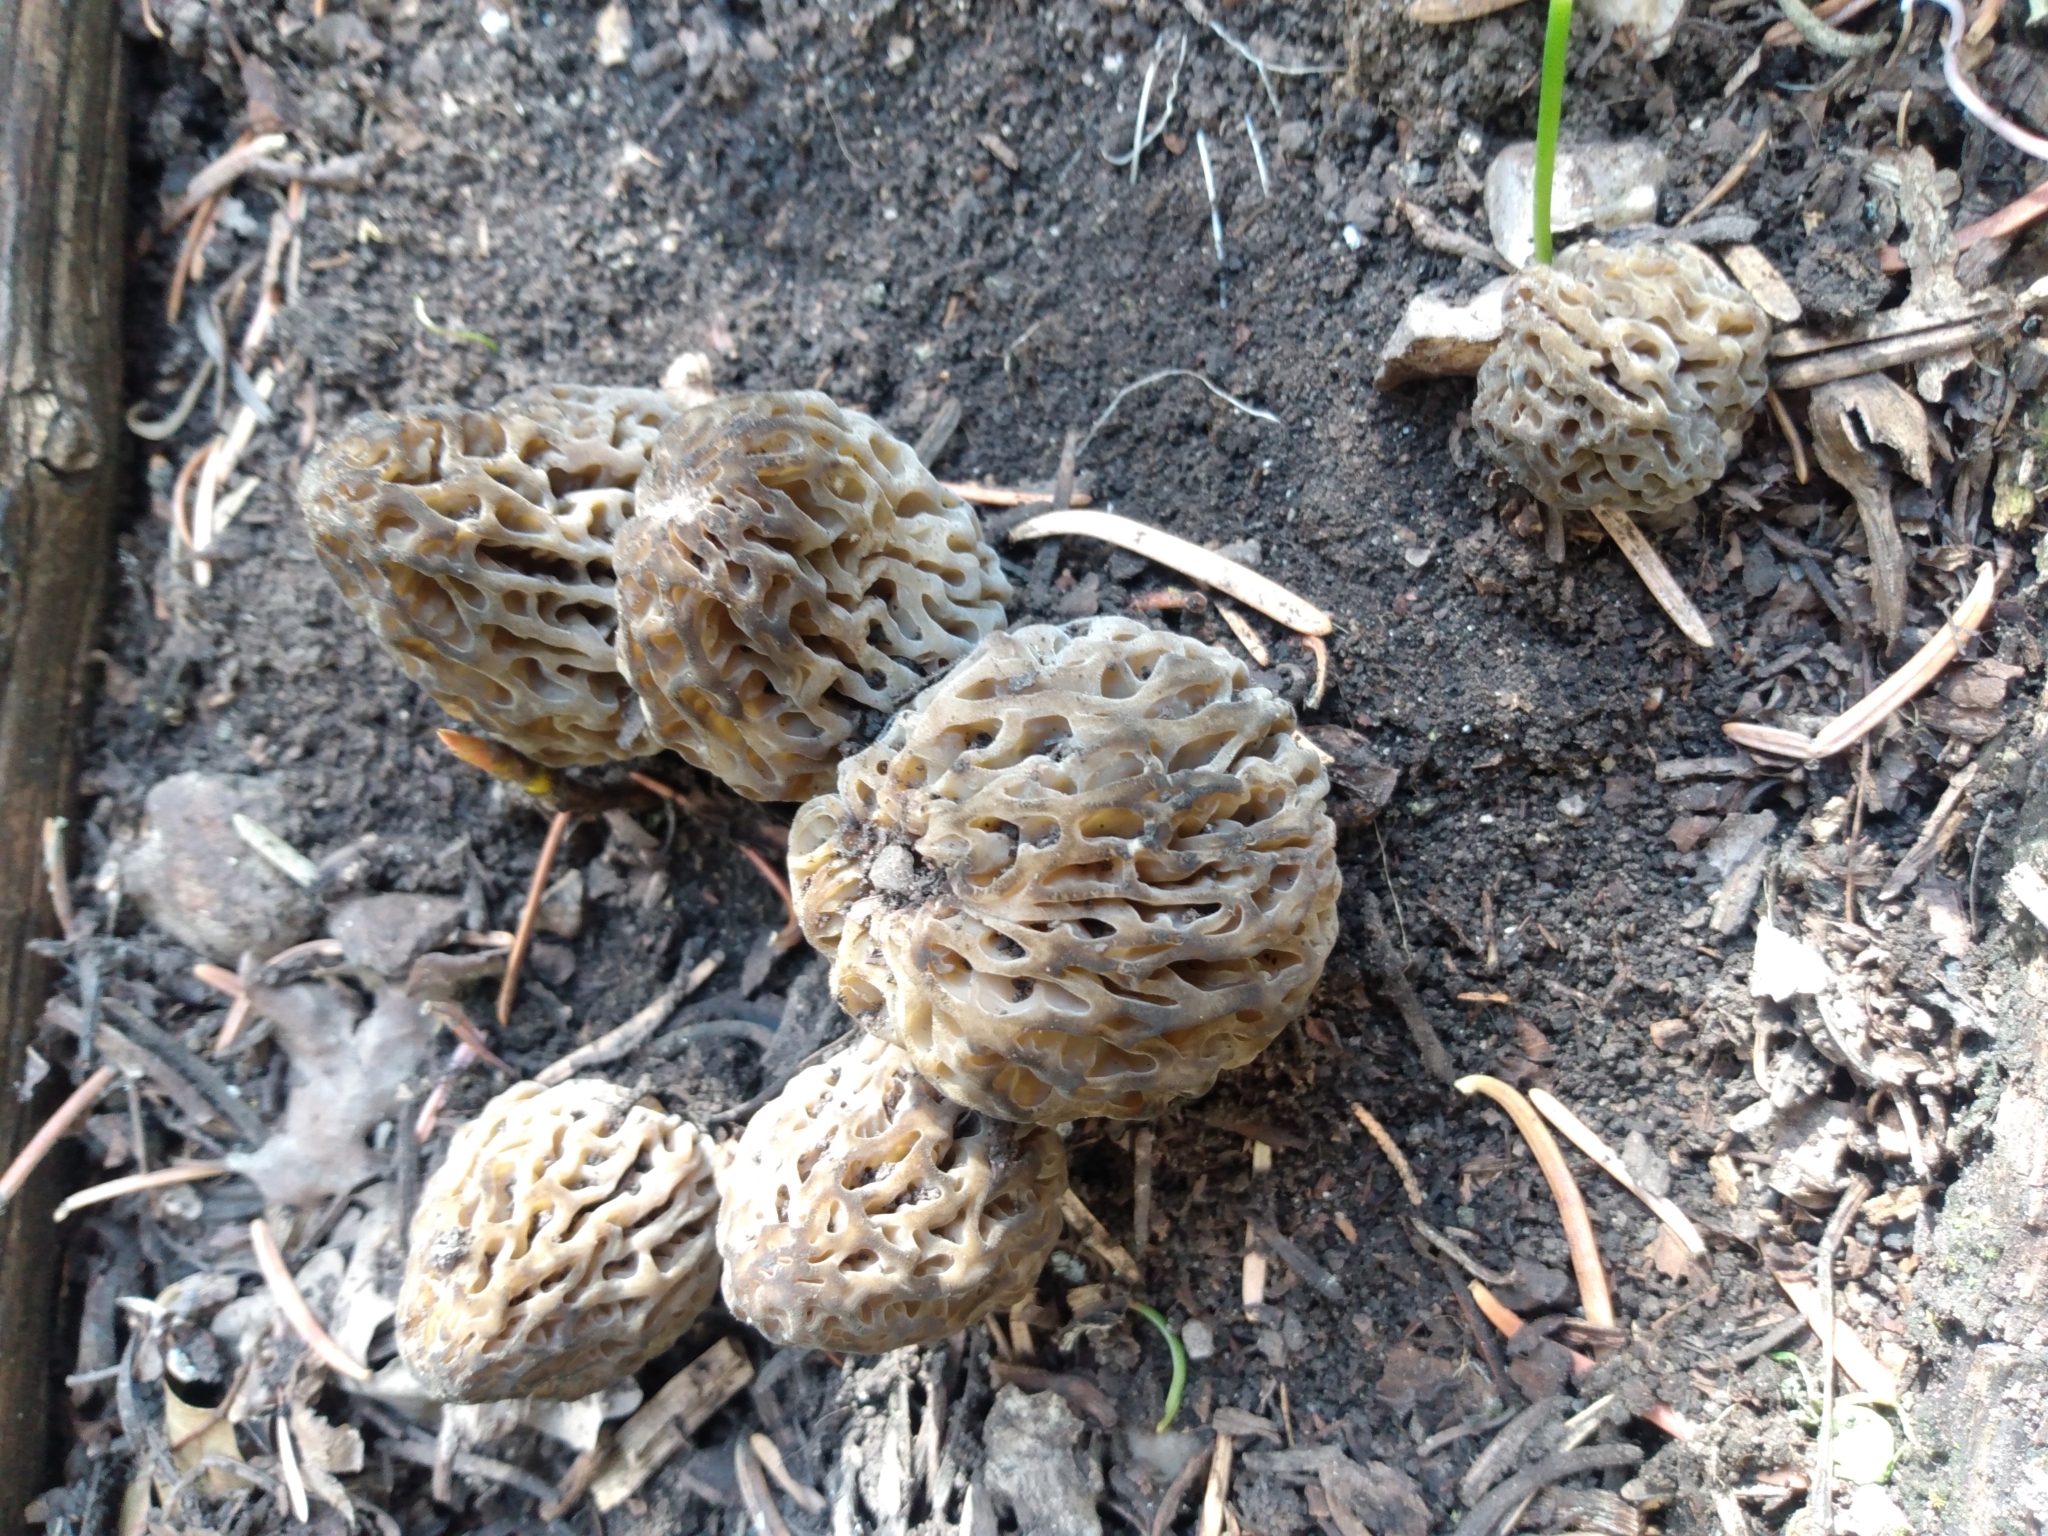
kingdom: Fungi
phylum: Ascomycota
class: Pezizomycetes
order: Pezizales
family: Morchellaceae
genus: Morchella
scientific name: Morchella snyderi
